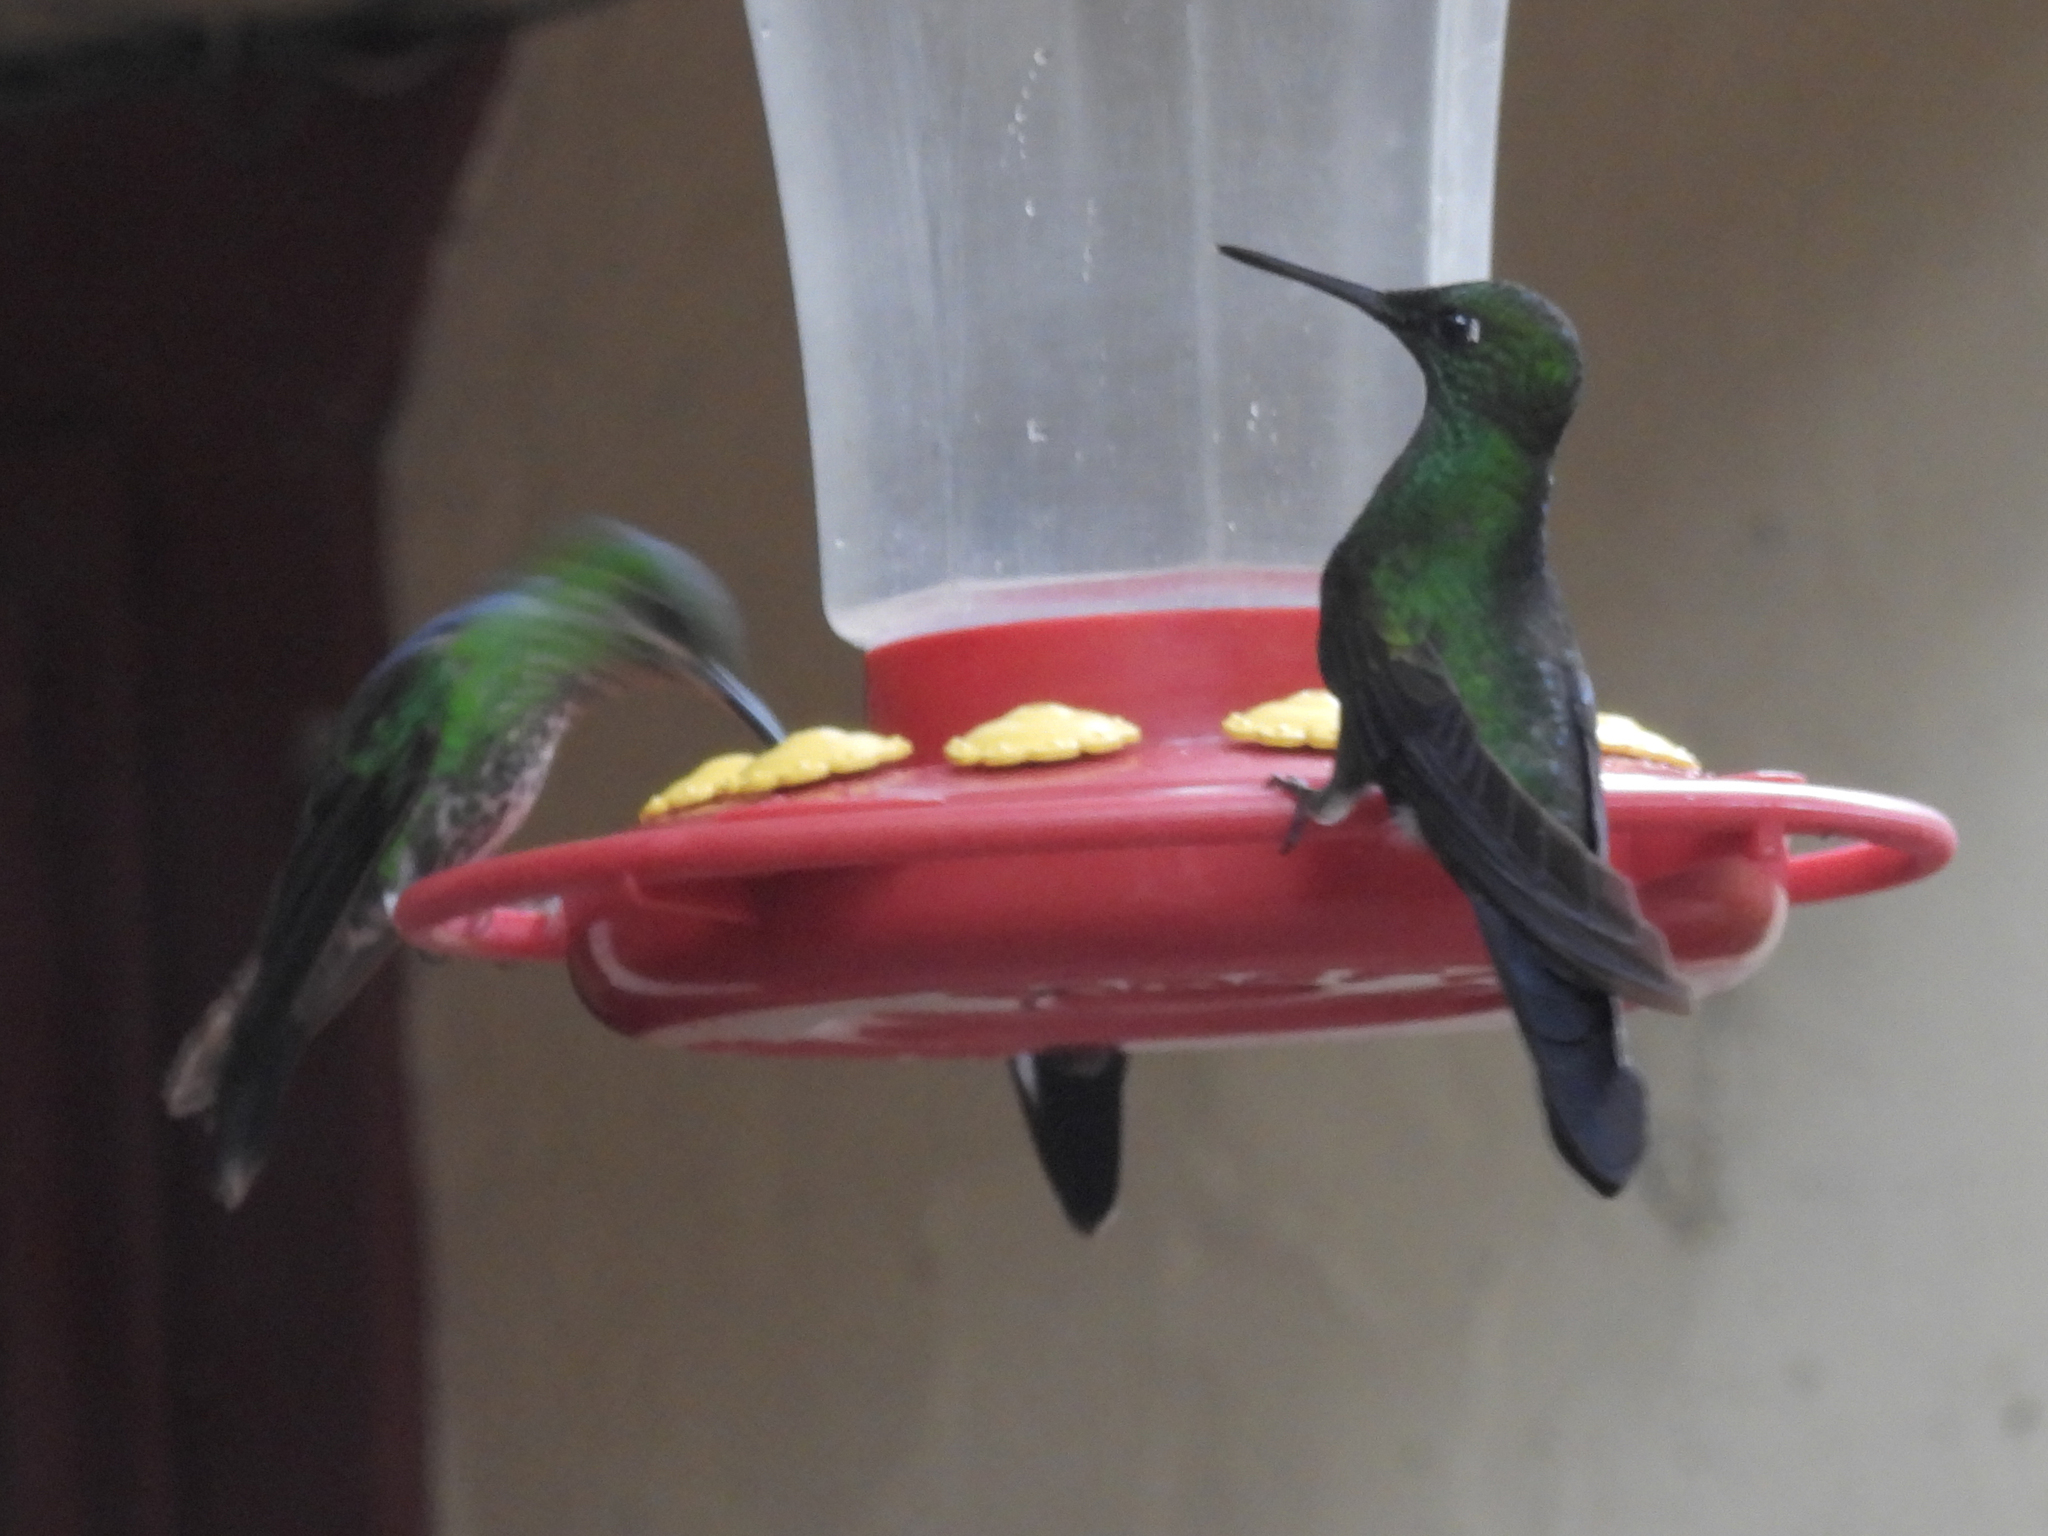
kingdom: Animalia
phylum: Chordata
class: Aves
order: Apodiformes
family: Trochilidae
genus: Heliodoxa
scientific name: Heliodoxa jacula
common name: Green-crowned brilliant
